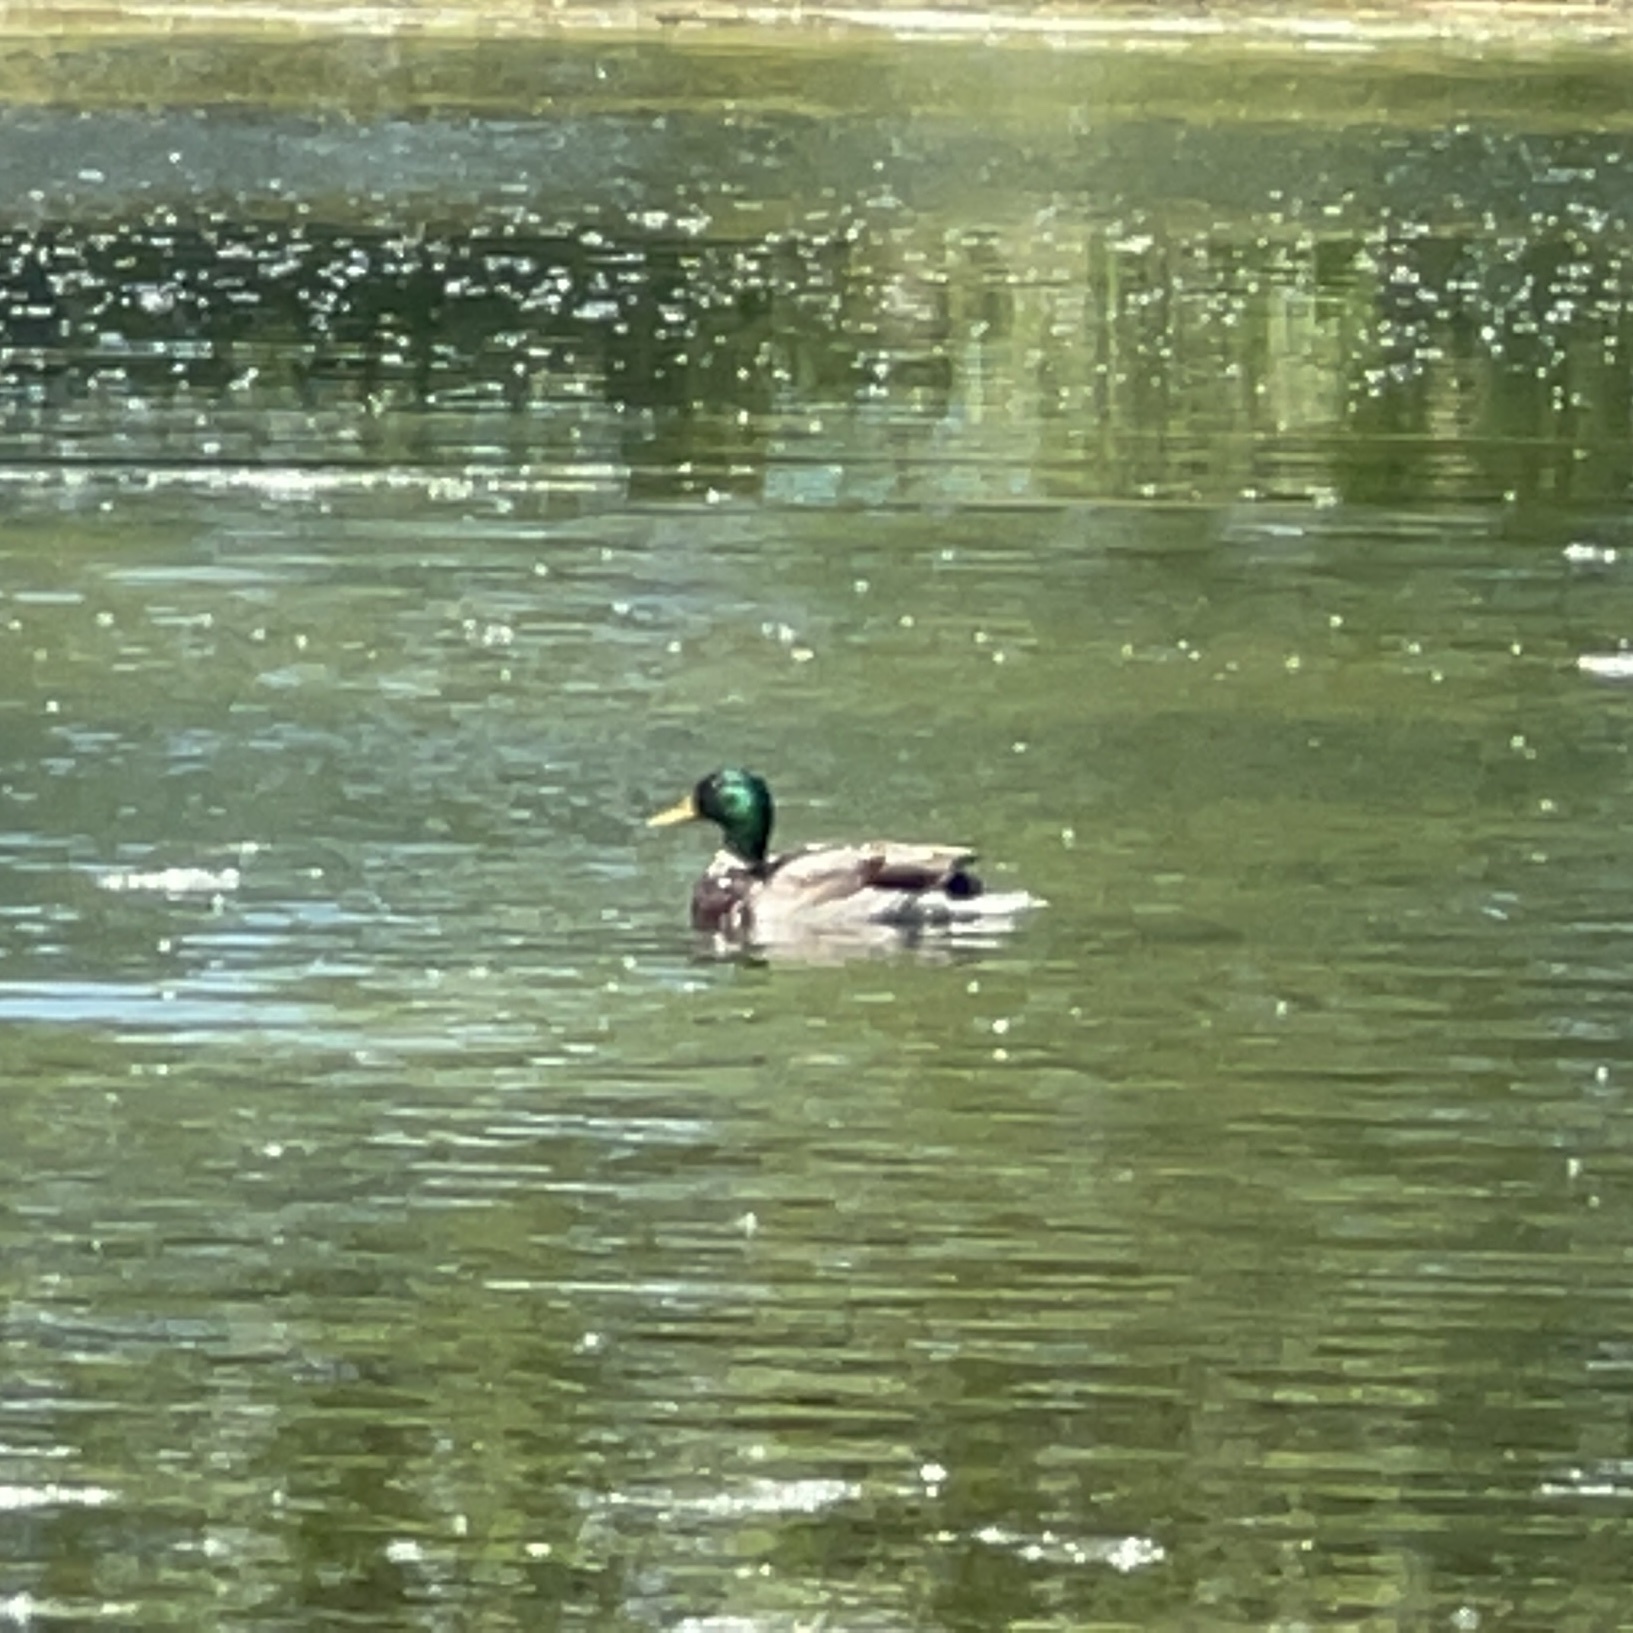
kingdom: Animalia
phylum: Chordata
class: Aves
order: Anseriformes
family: Anatidae
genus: Anas
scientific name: Anas platyrhynchos
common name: Mallard
